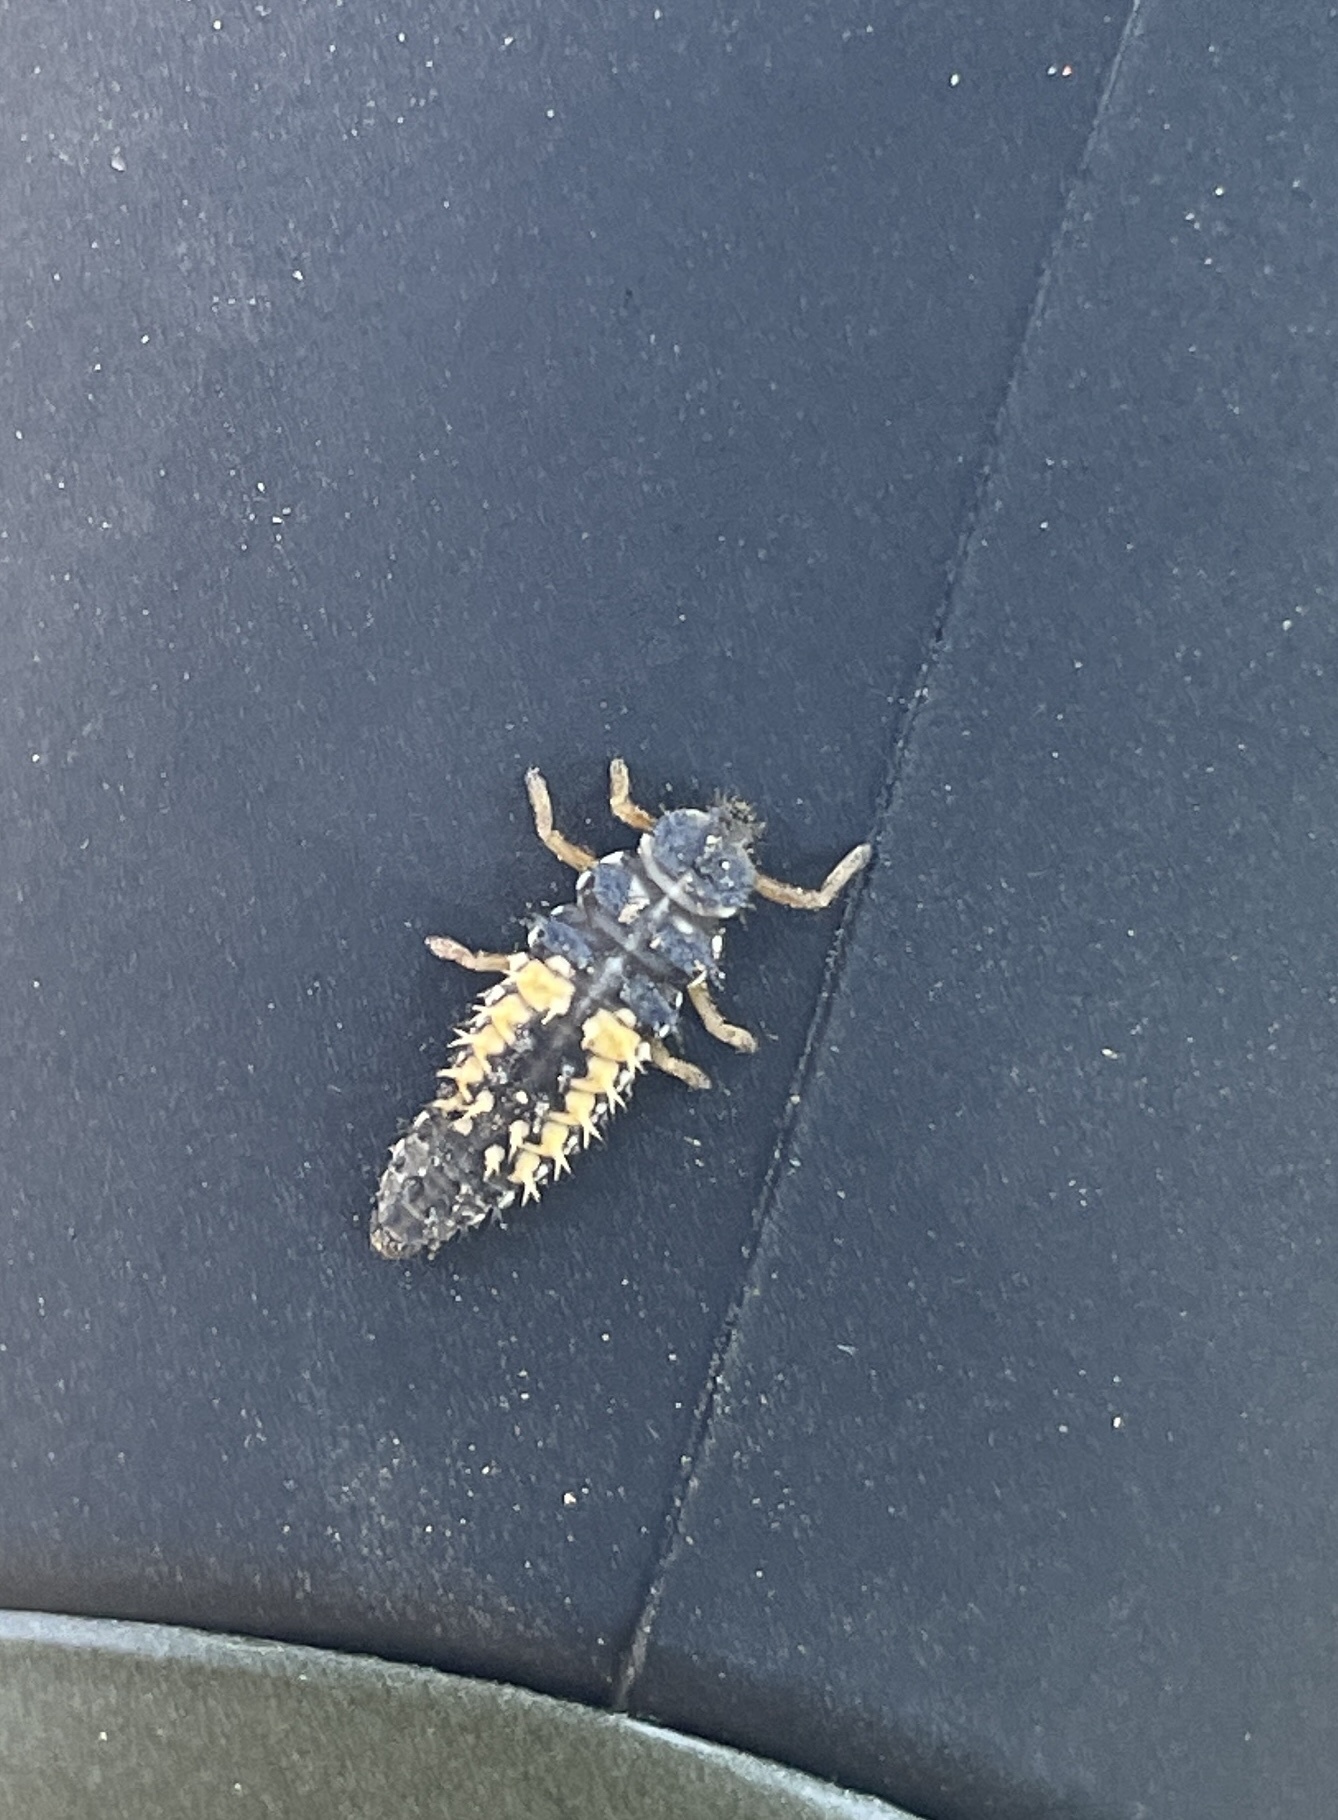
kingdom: Animalia
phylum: Arthropoda
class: Insecta
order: Coleoptera
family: Coccinellidae
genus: Harmonia
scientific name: Harmonia axyridis
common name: Harlequin ladybird
